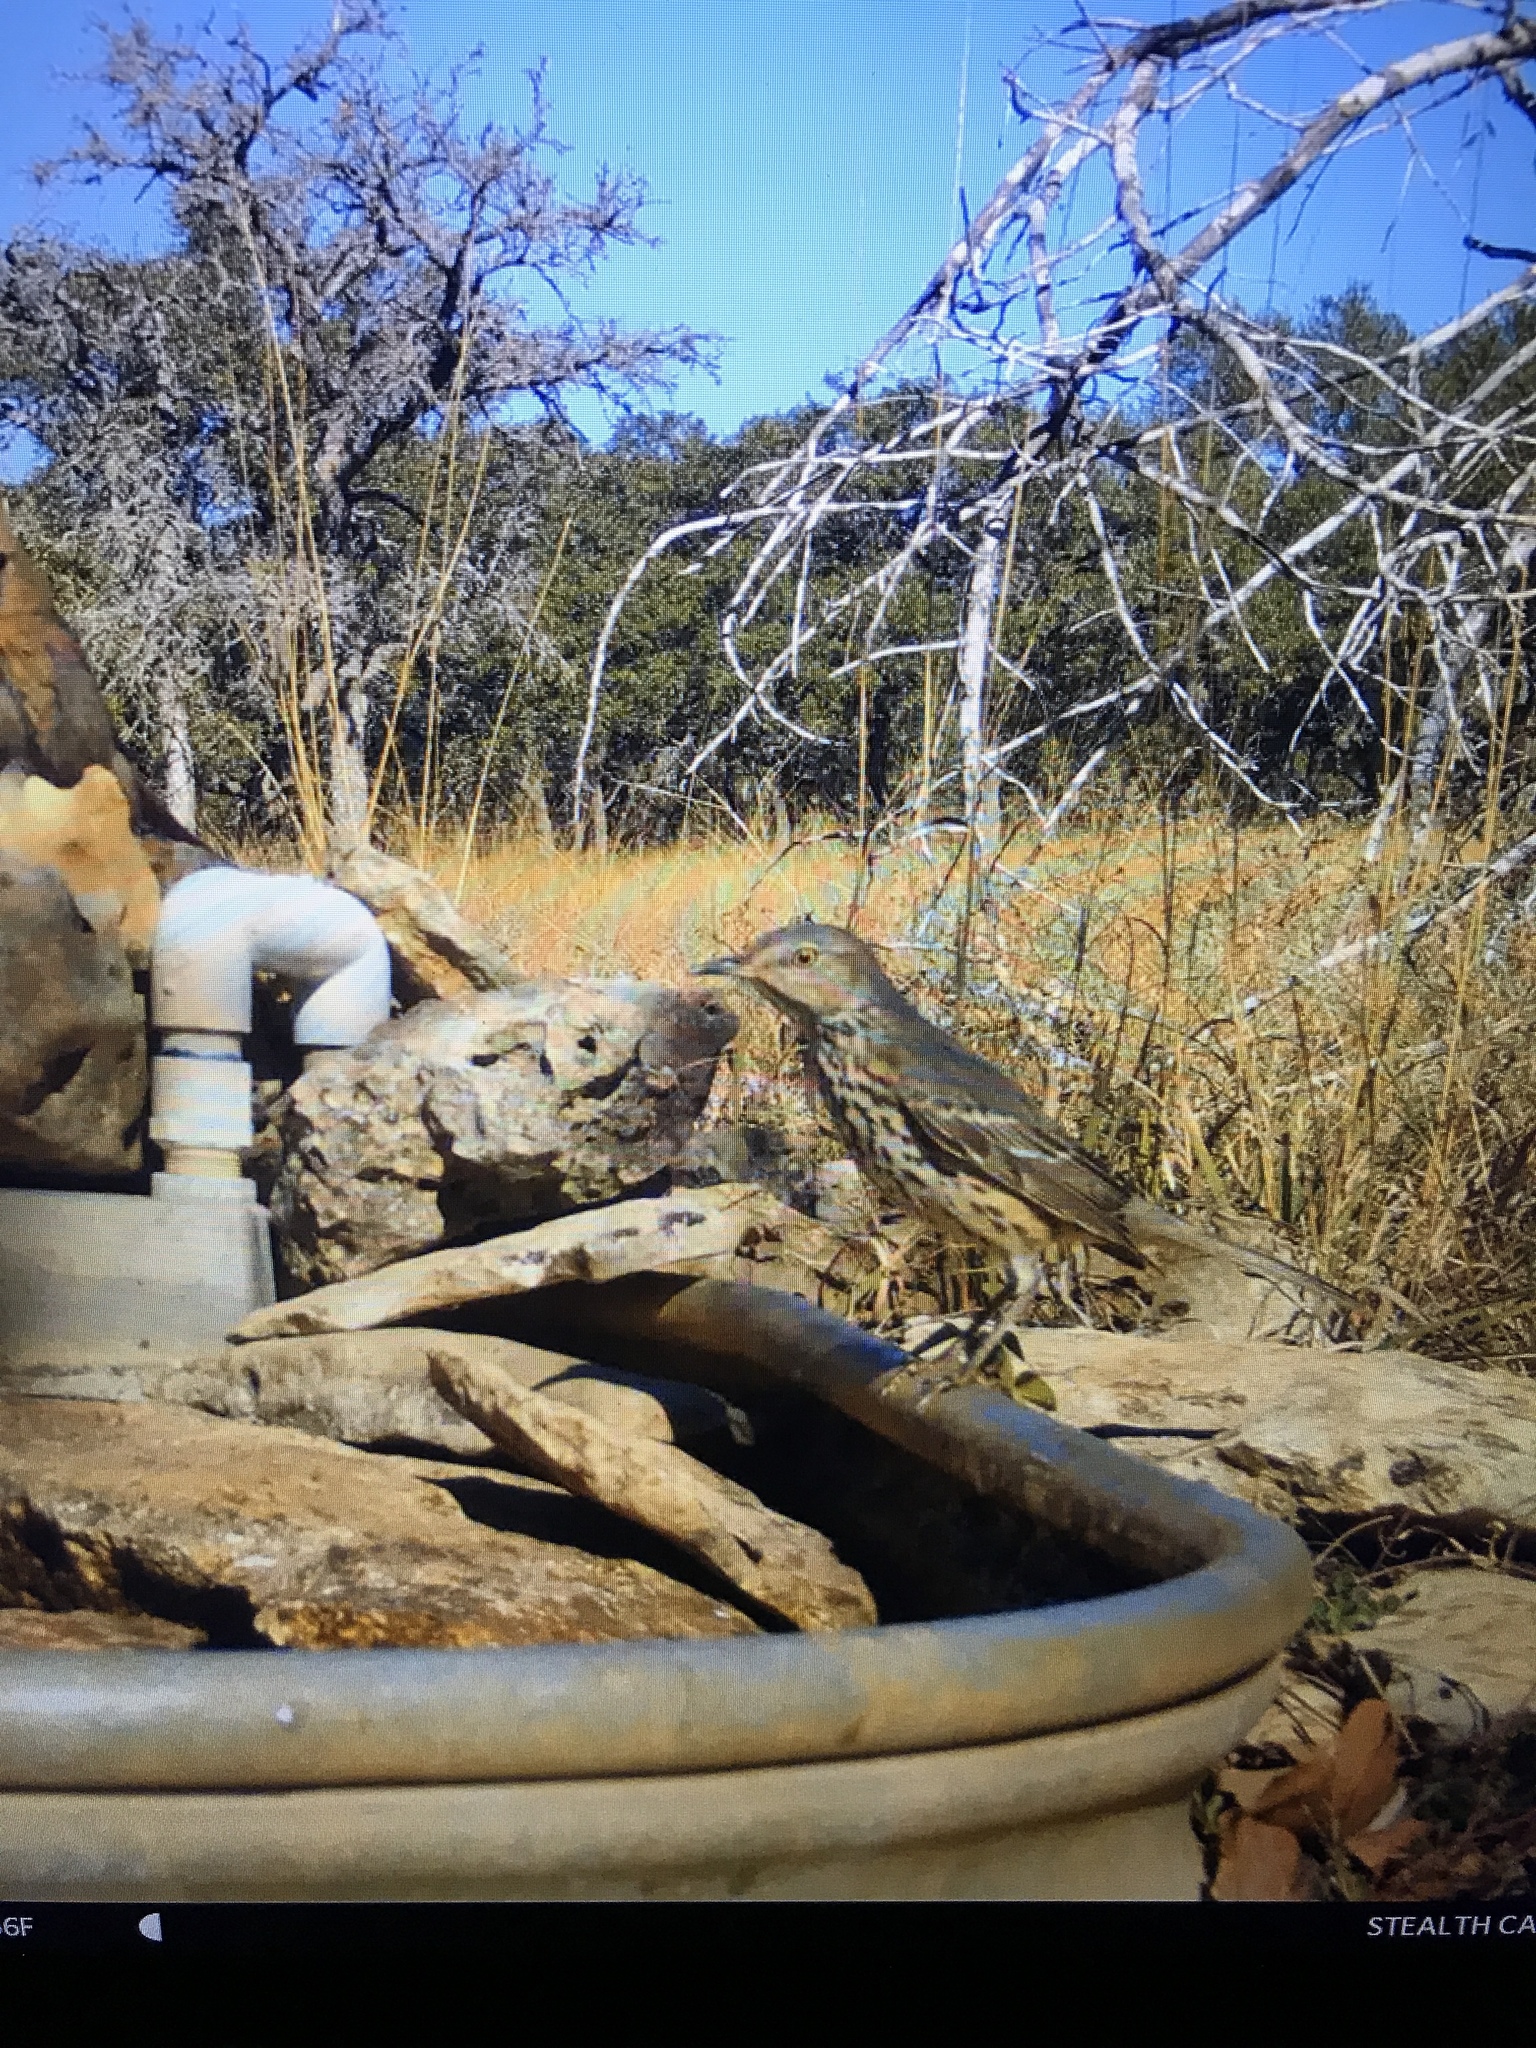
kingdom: Animalia
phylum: Chordata
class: Aves
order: Passeriformes
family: Mimidae
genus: Oreoscoptes
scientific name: Oreoscoptes montanus
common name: Sage thrasher
